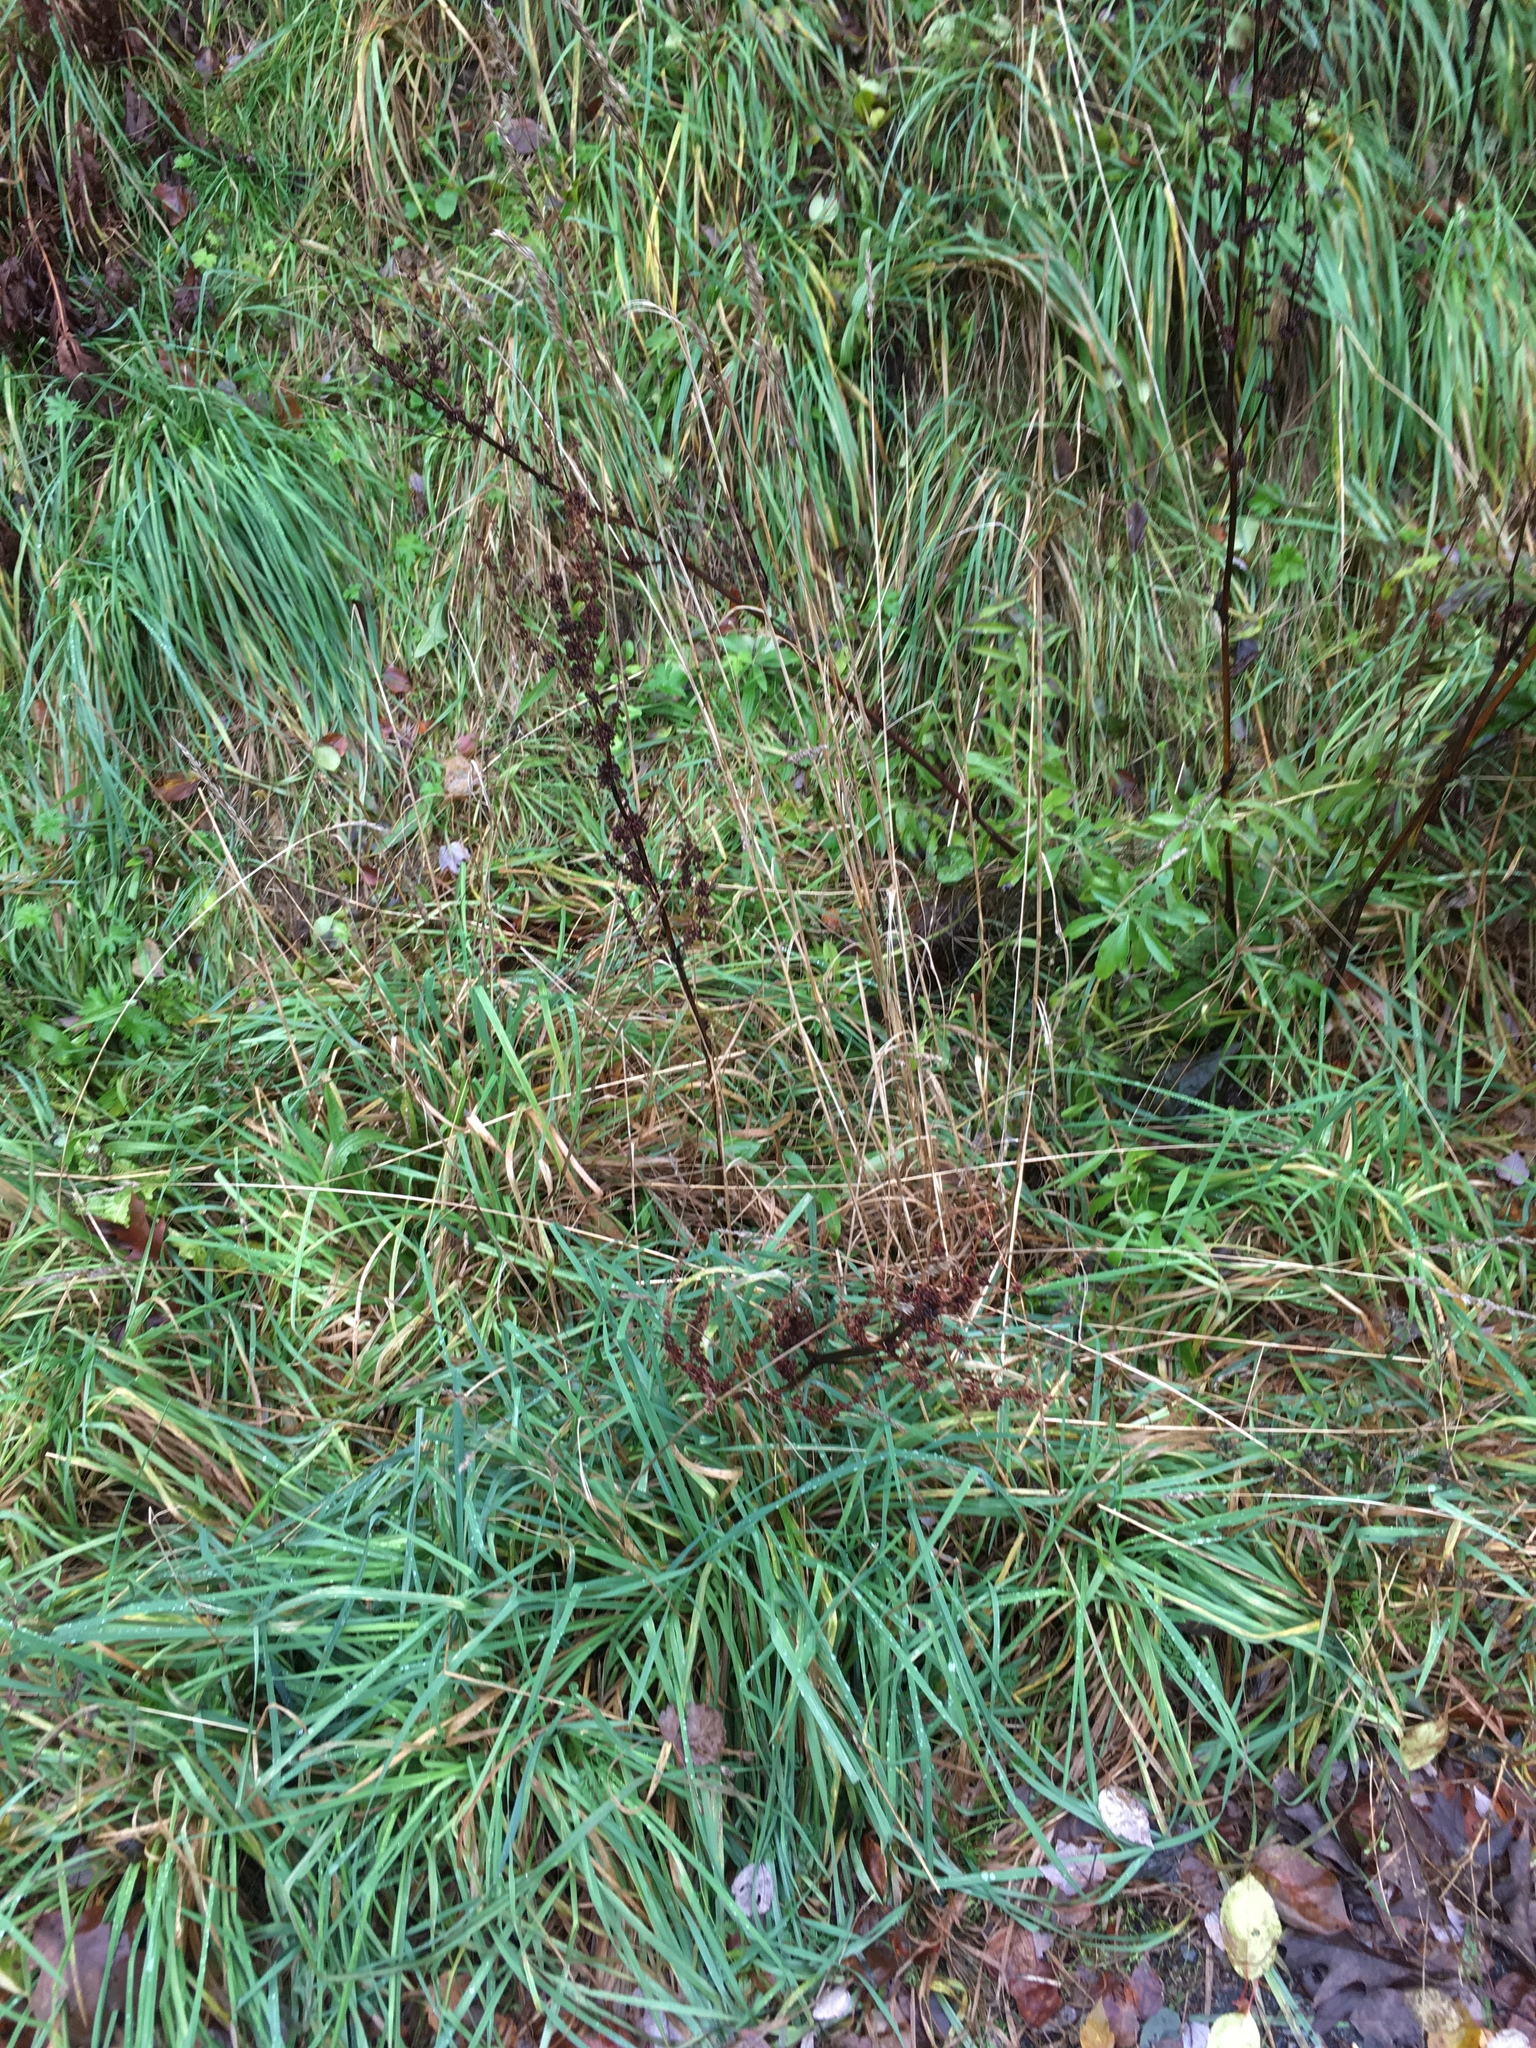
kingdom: Plantae
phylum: Tracheophyta
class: Liliopsida
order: Poales
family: Poaceae
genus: Dactylis
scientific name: Dactylis glomerata
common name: Orchardgrass
